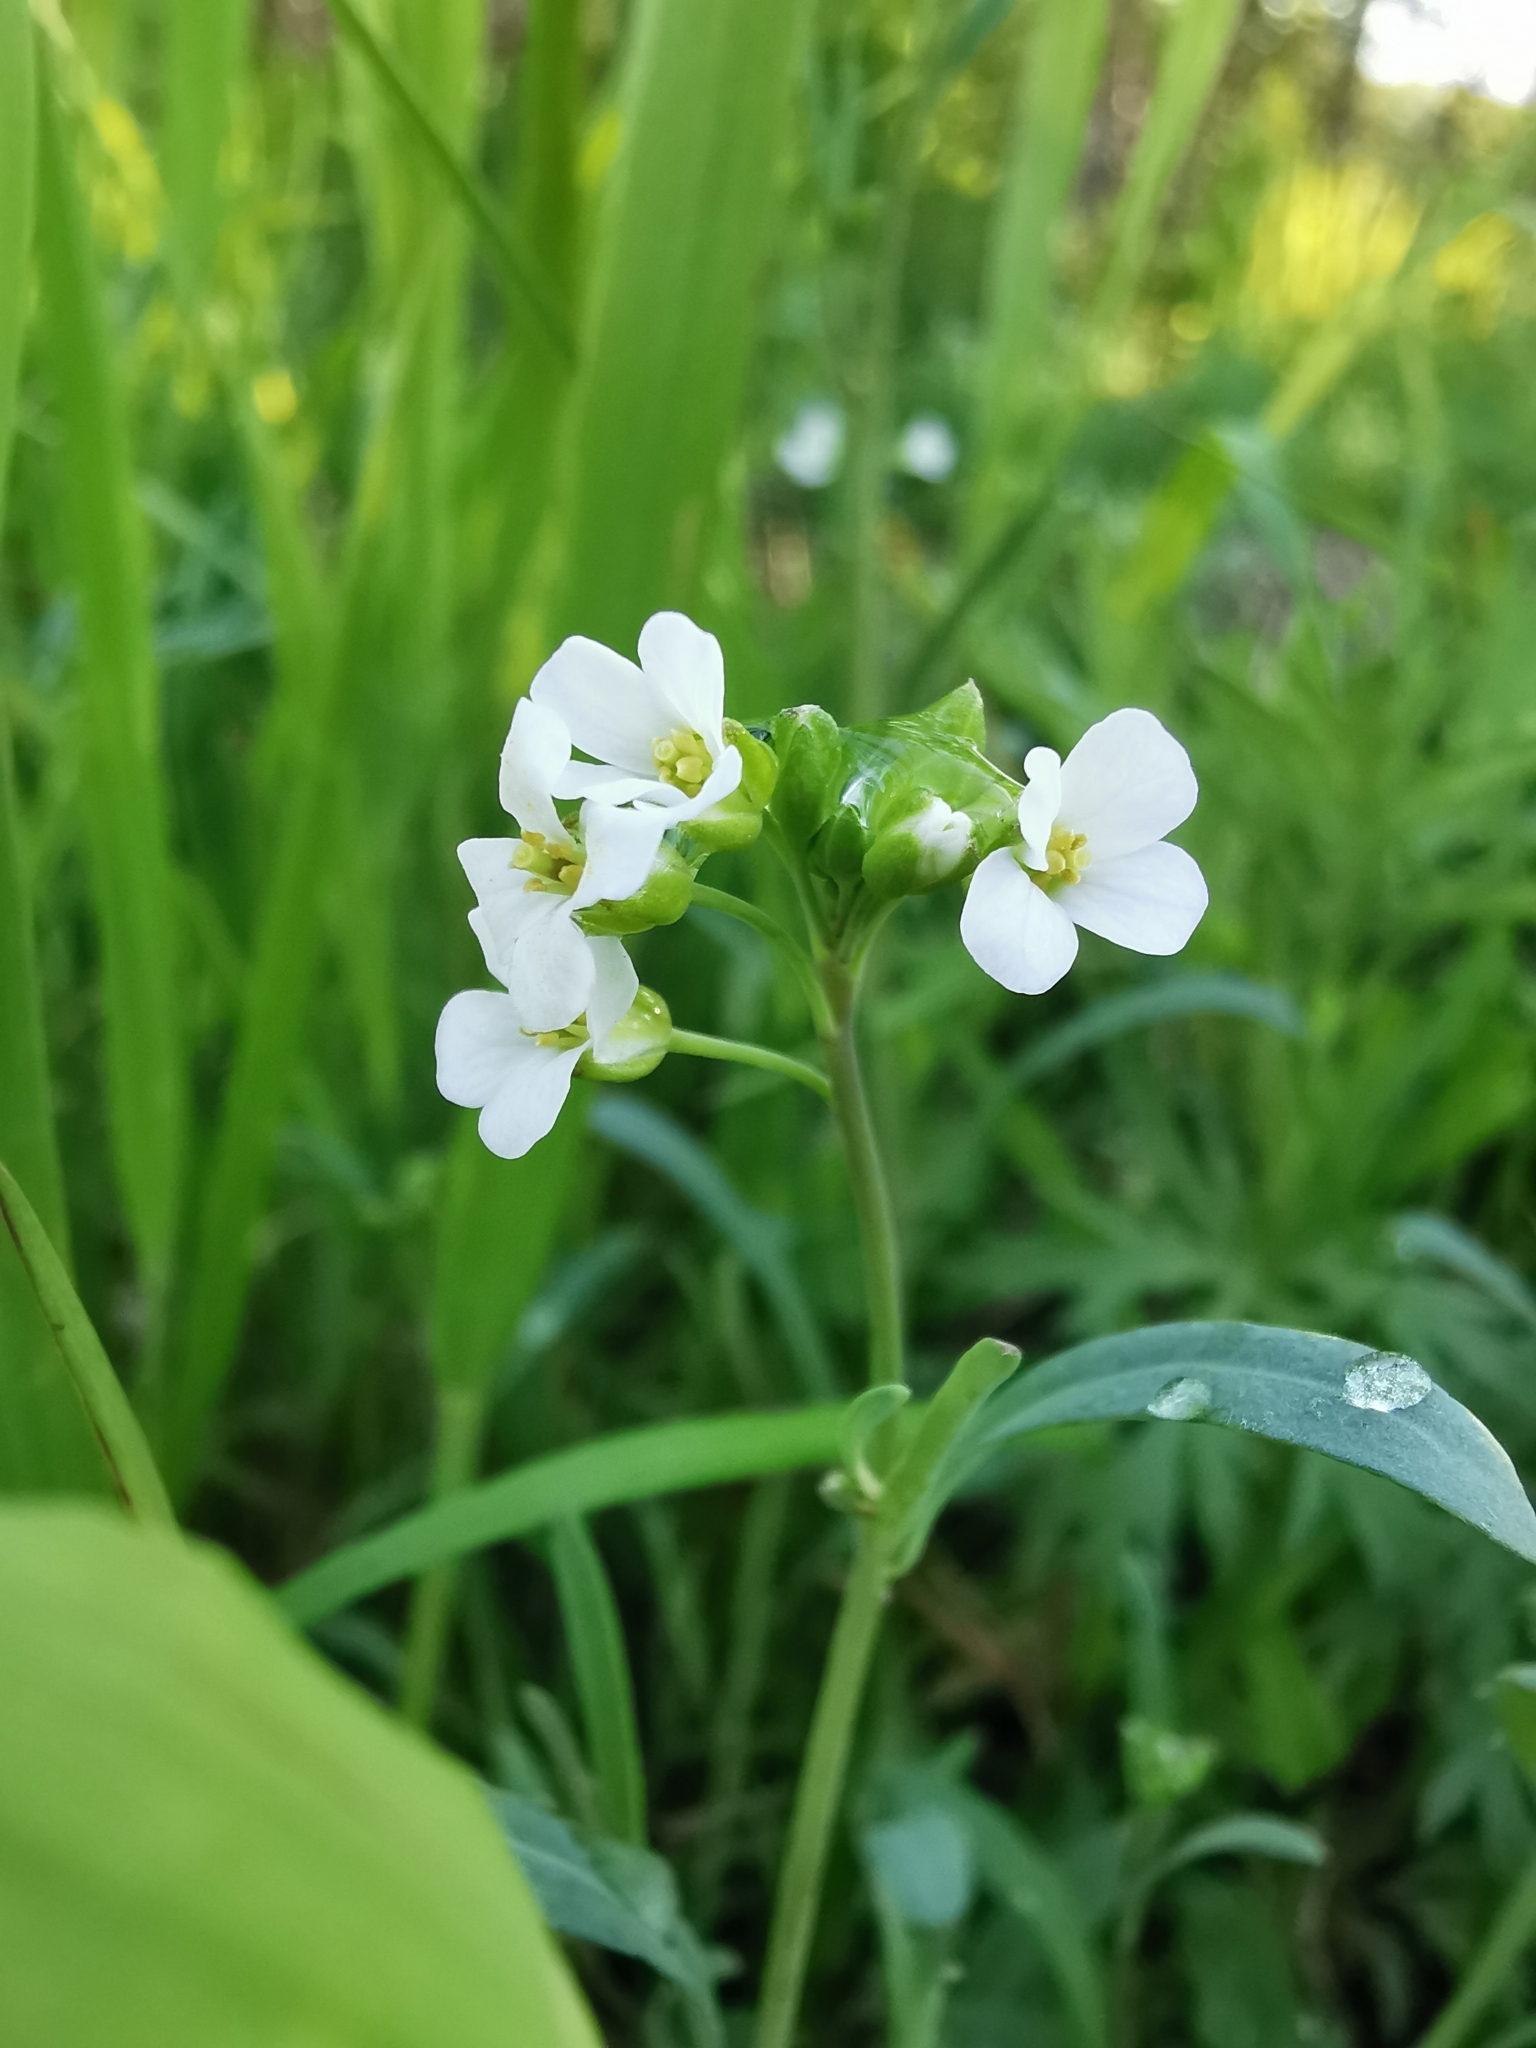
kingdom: Plantae
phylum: Tracheophyta
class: Magnoliopsida
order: Brassicales
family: Brassicaceae
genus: Arabidopsis
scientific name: Arabidopsis lyrata
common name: Lyrate rockcress
